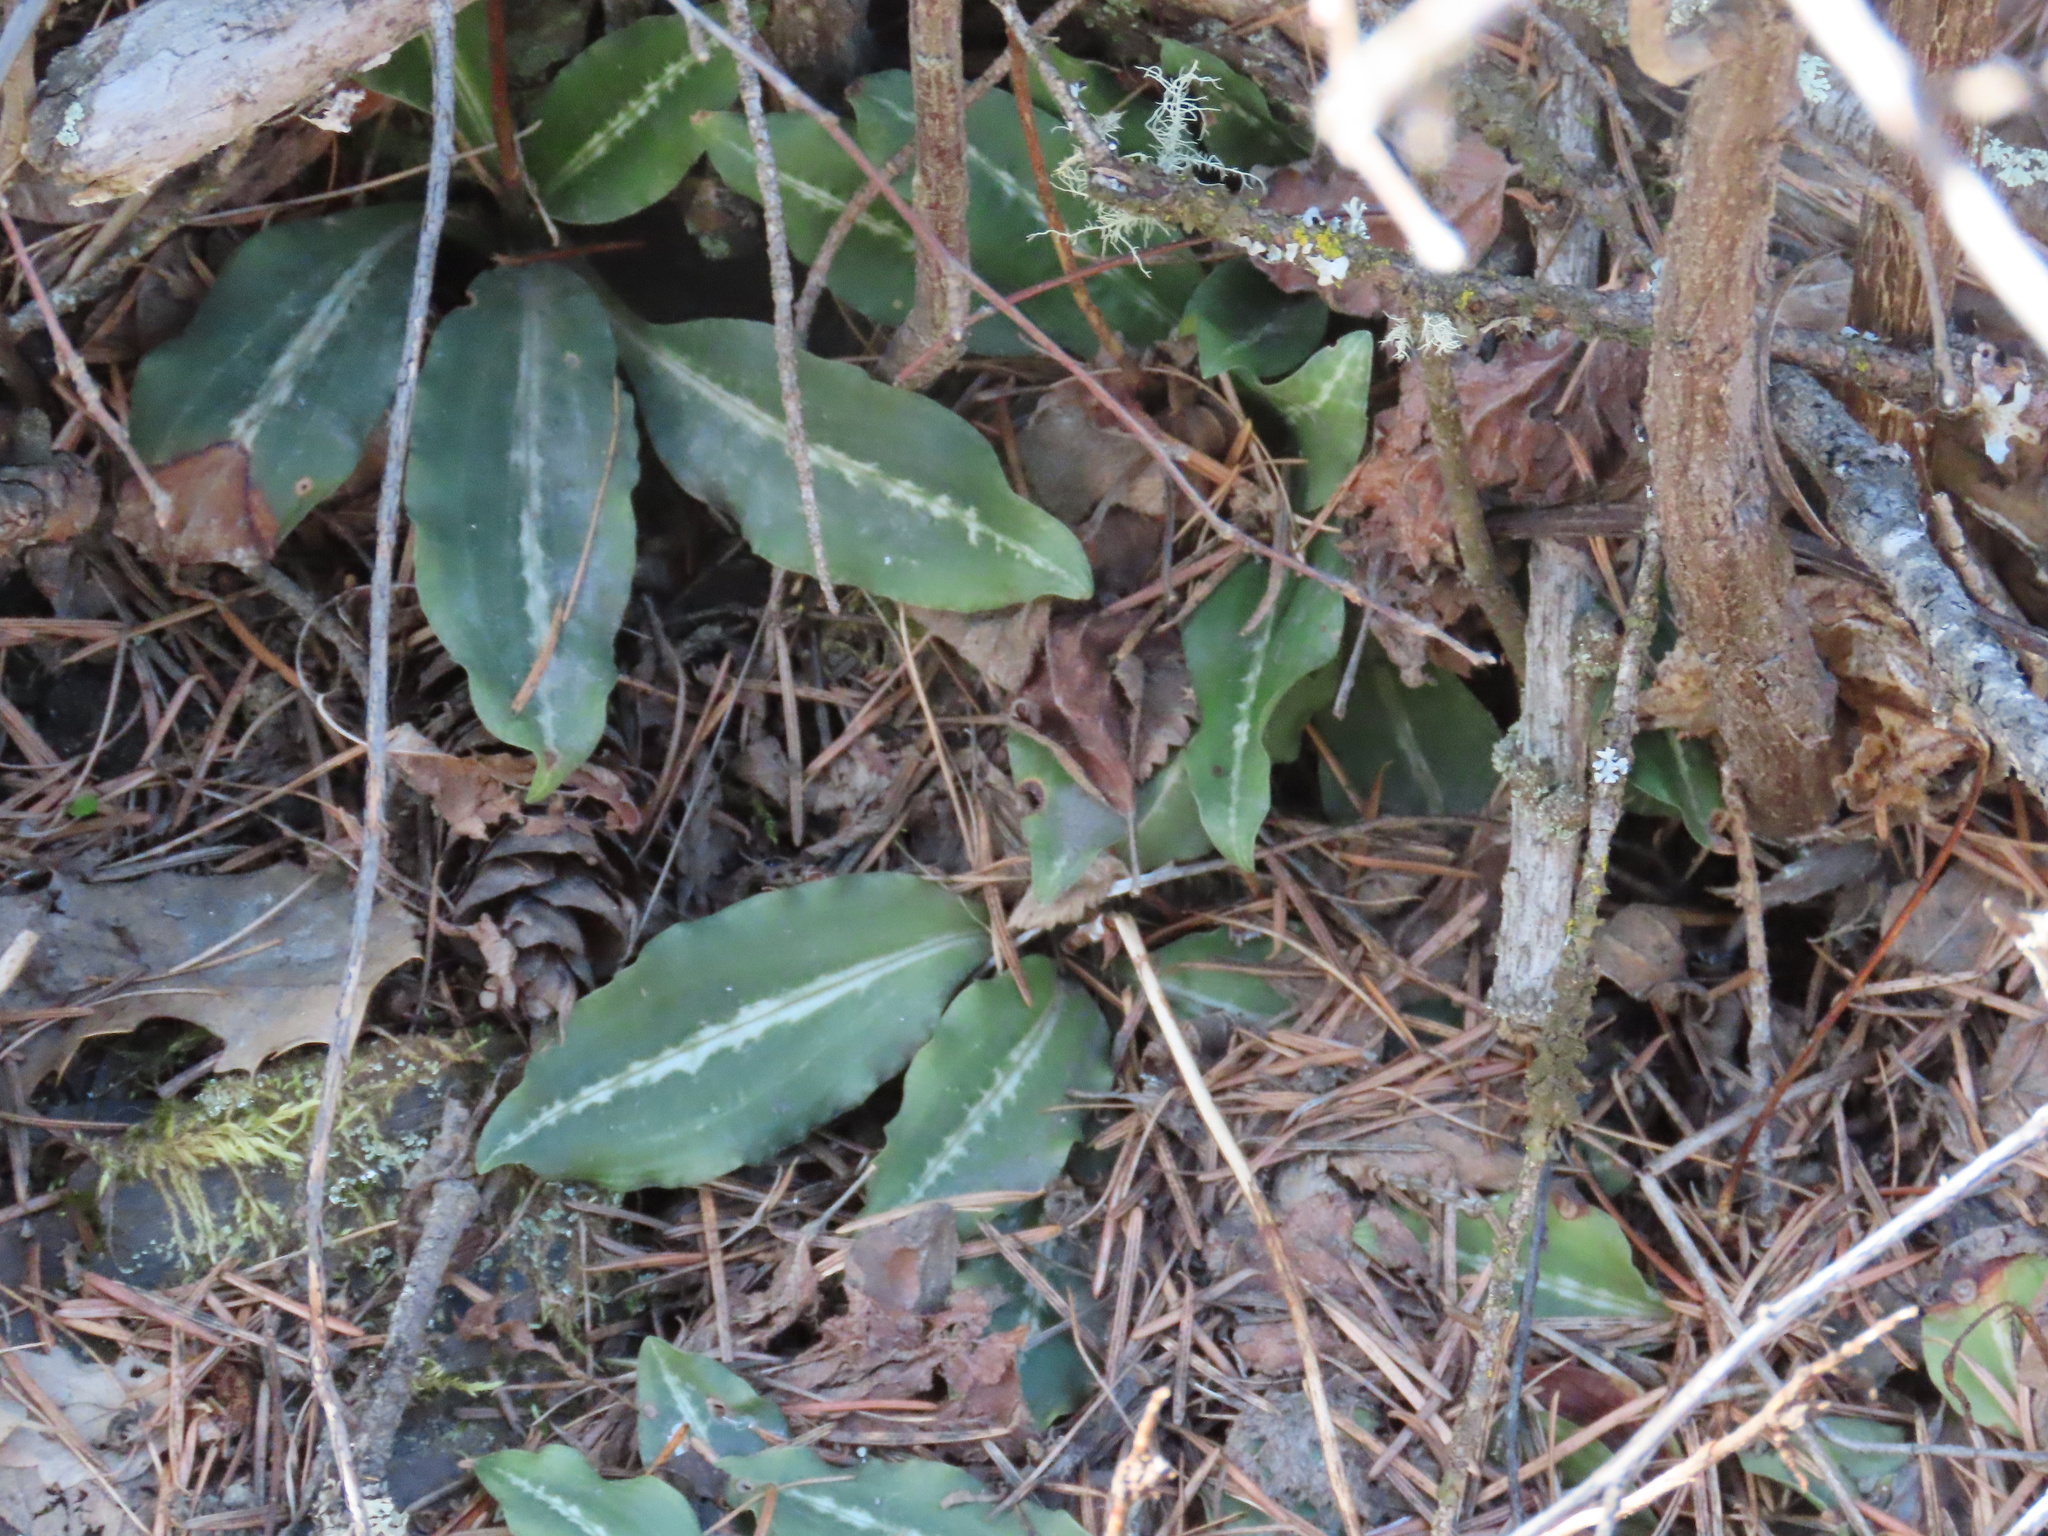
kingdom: Plantae
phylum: Tracheophyta
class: Liliopsida
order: Asparagales
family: Orchidaceae
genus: Goodyera
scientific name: Goodyera oblongifolia
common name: Giant rattlesnake-plantain
